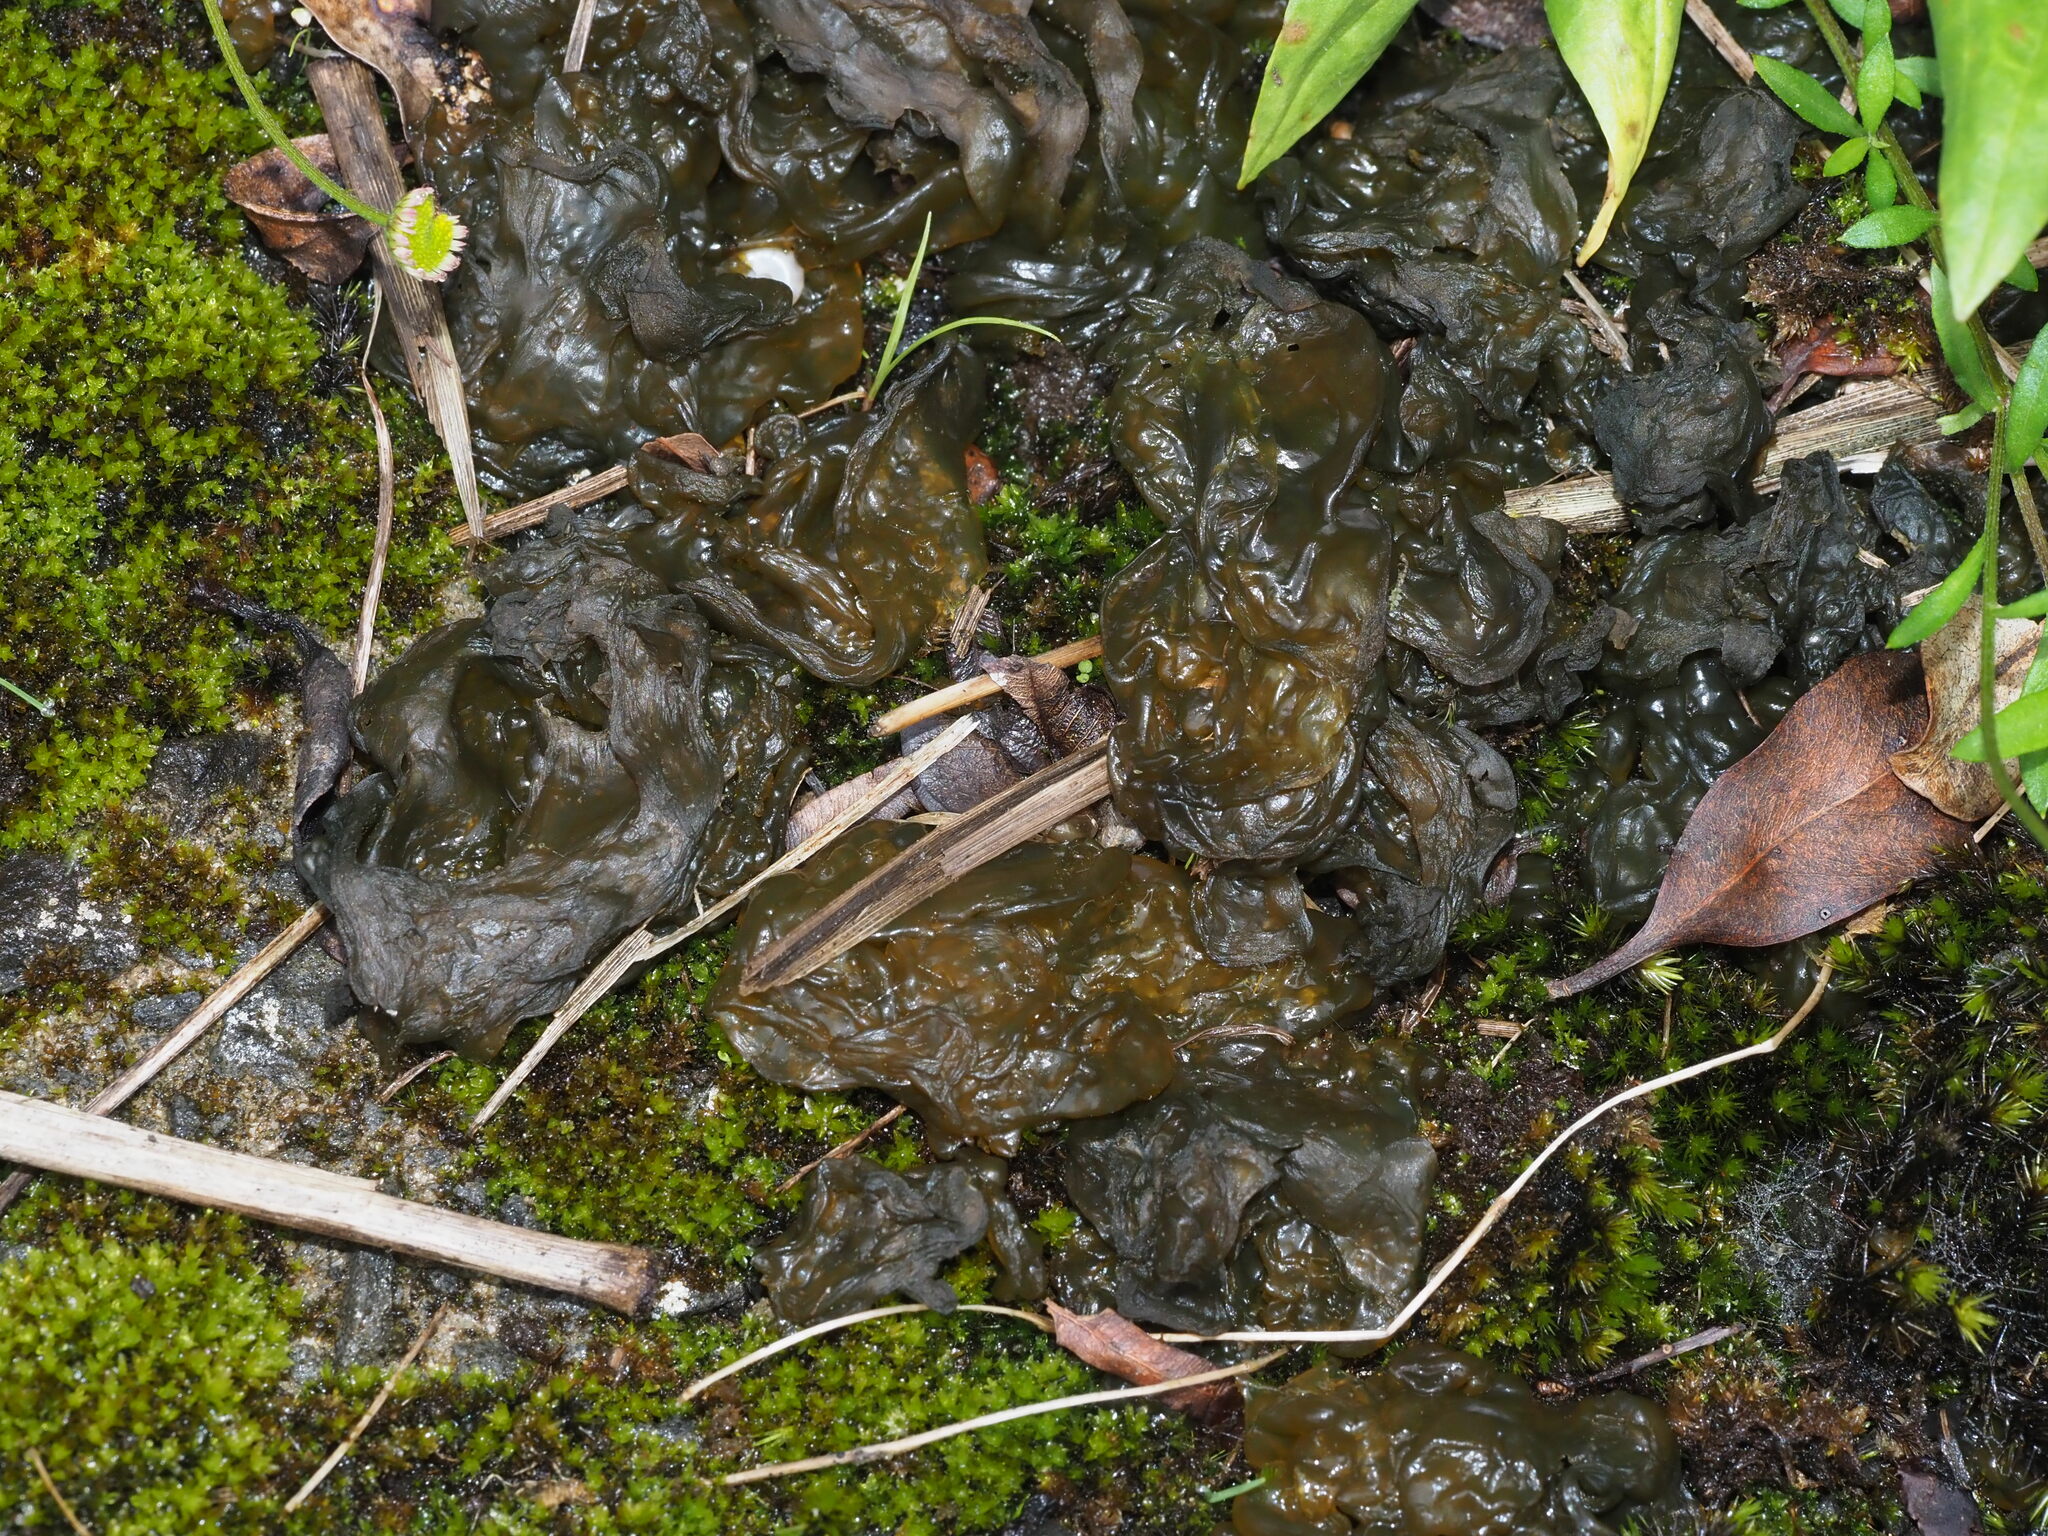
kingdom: Bacteria
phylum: Cyanobacteria
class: Cyanobacteriia
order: Cyanobacteriales
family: Nostocaceae
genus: Nostoc
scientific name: Nostoc commune
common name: Star jelly
